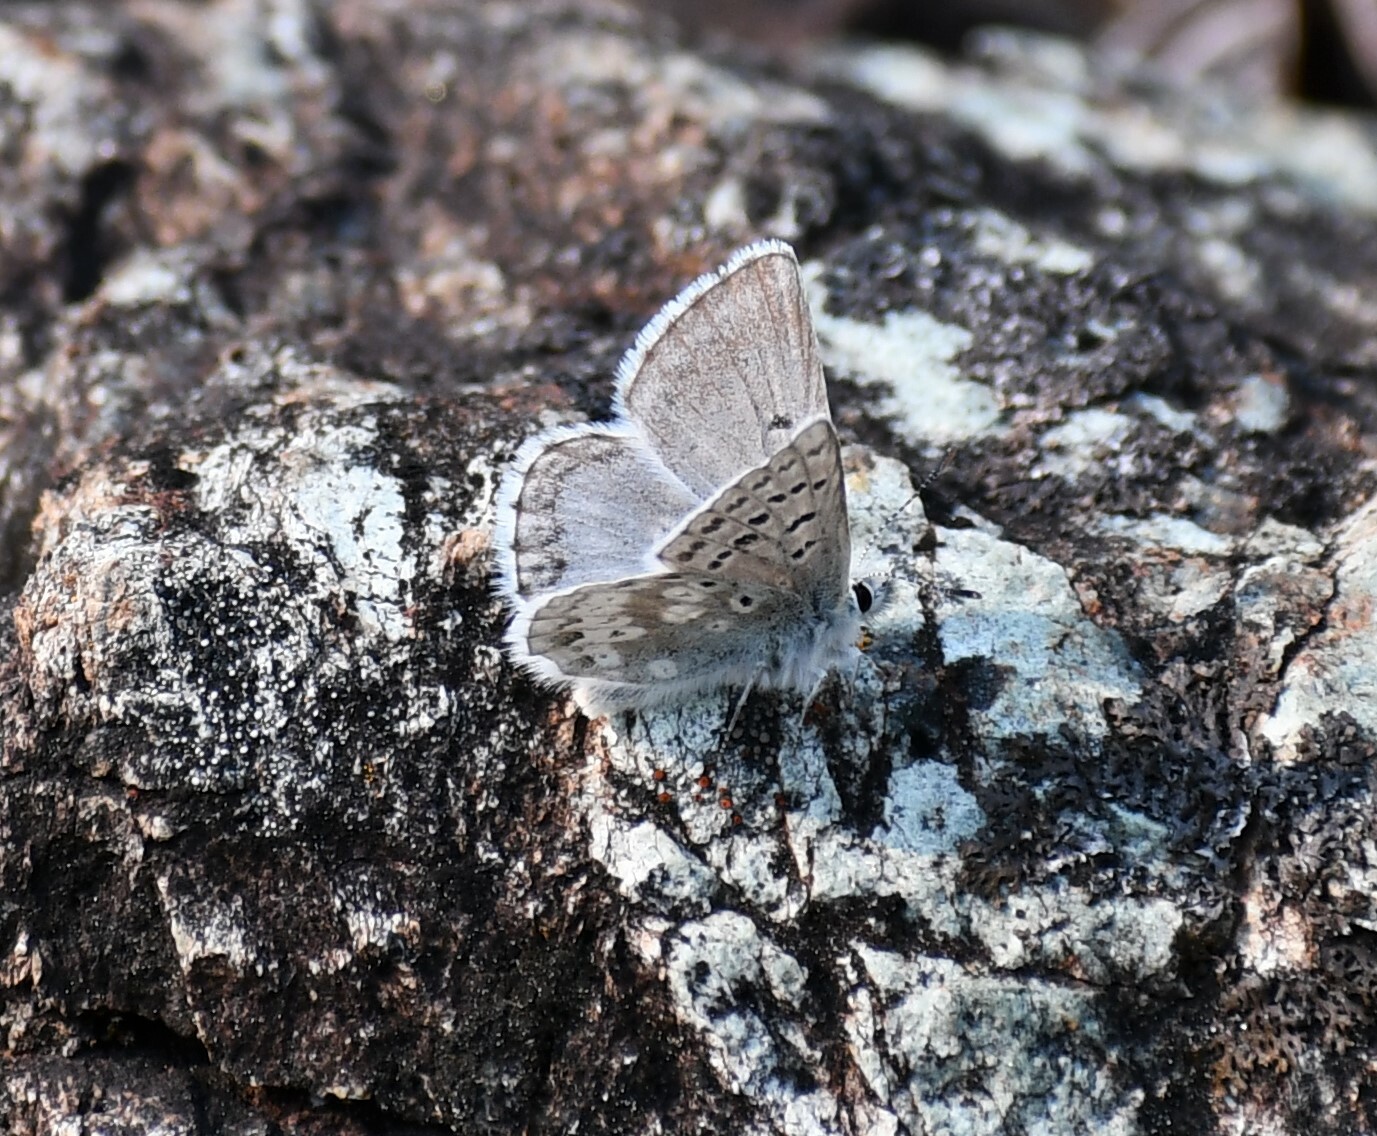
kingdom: Animalia
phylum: Arthropoda
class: Insecta
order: Lepidoptera
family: Lycaenidae
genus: Agriades
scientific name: Agriades glandon
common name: Glandon blue
